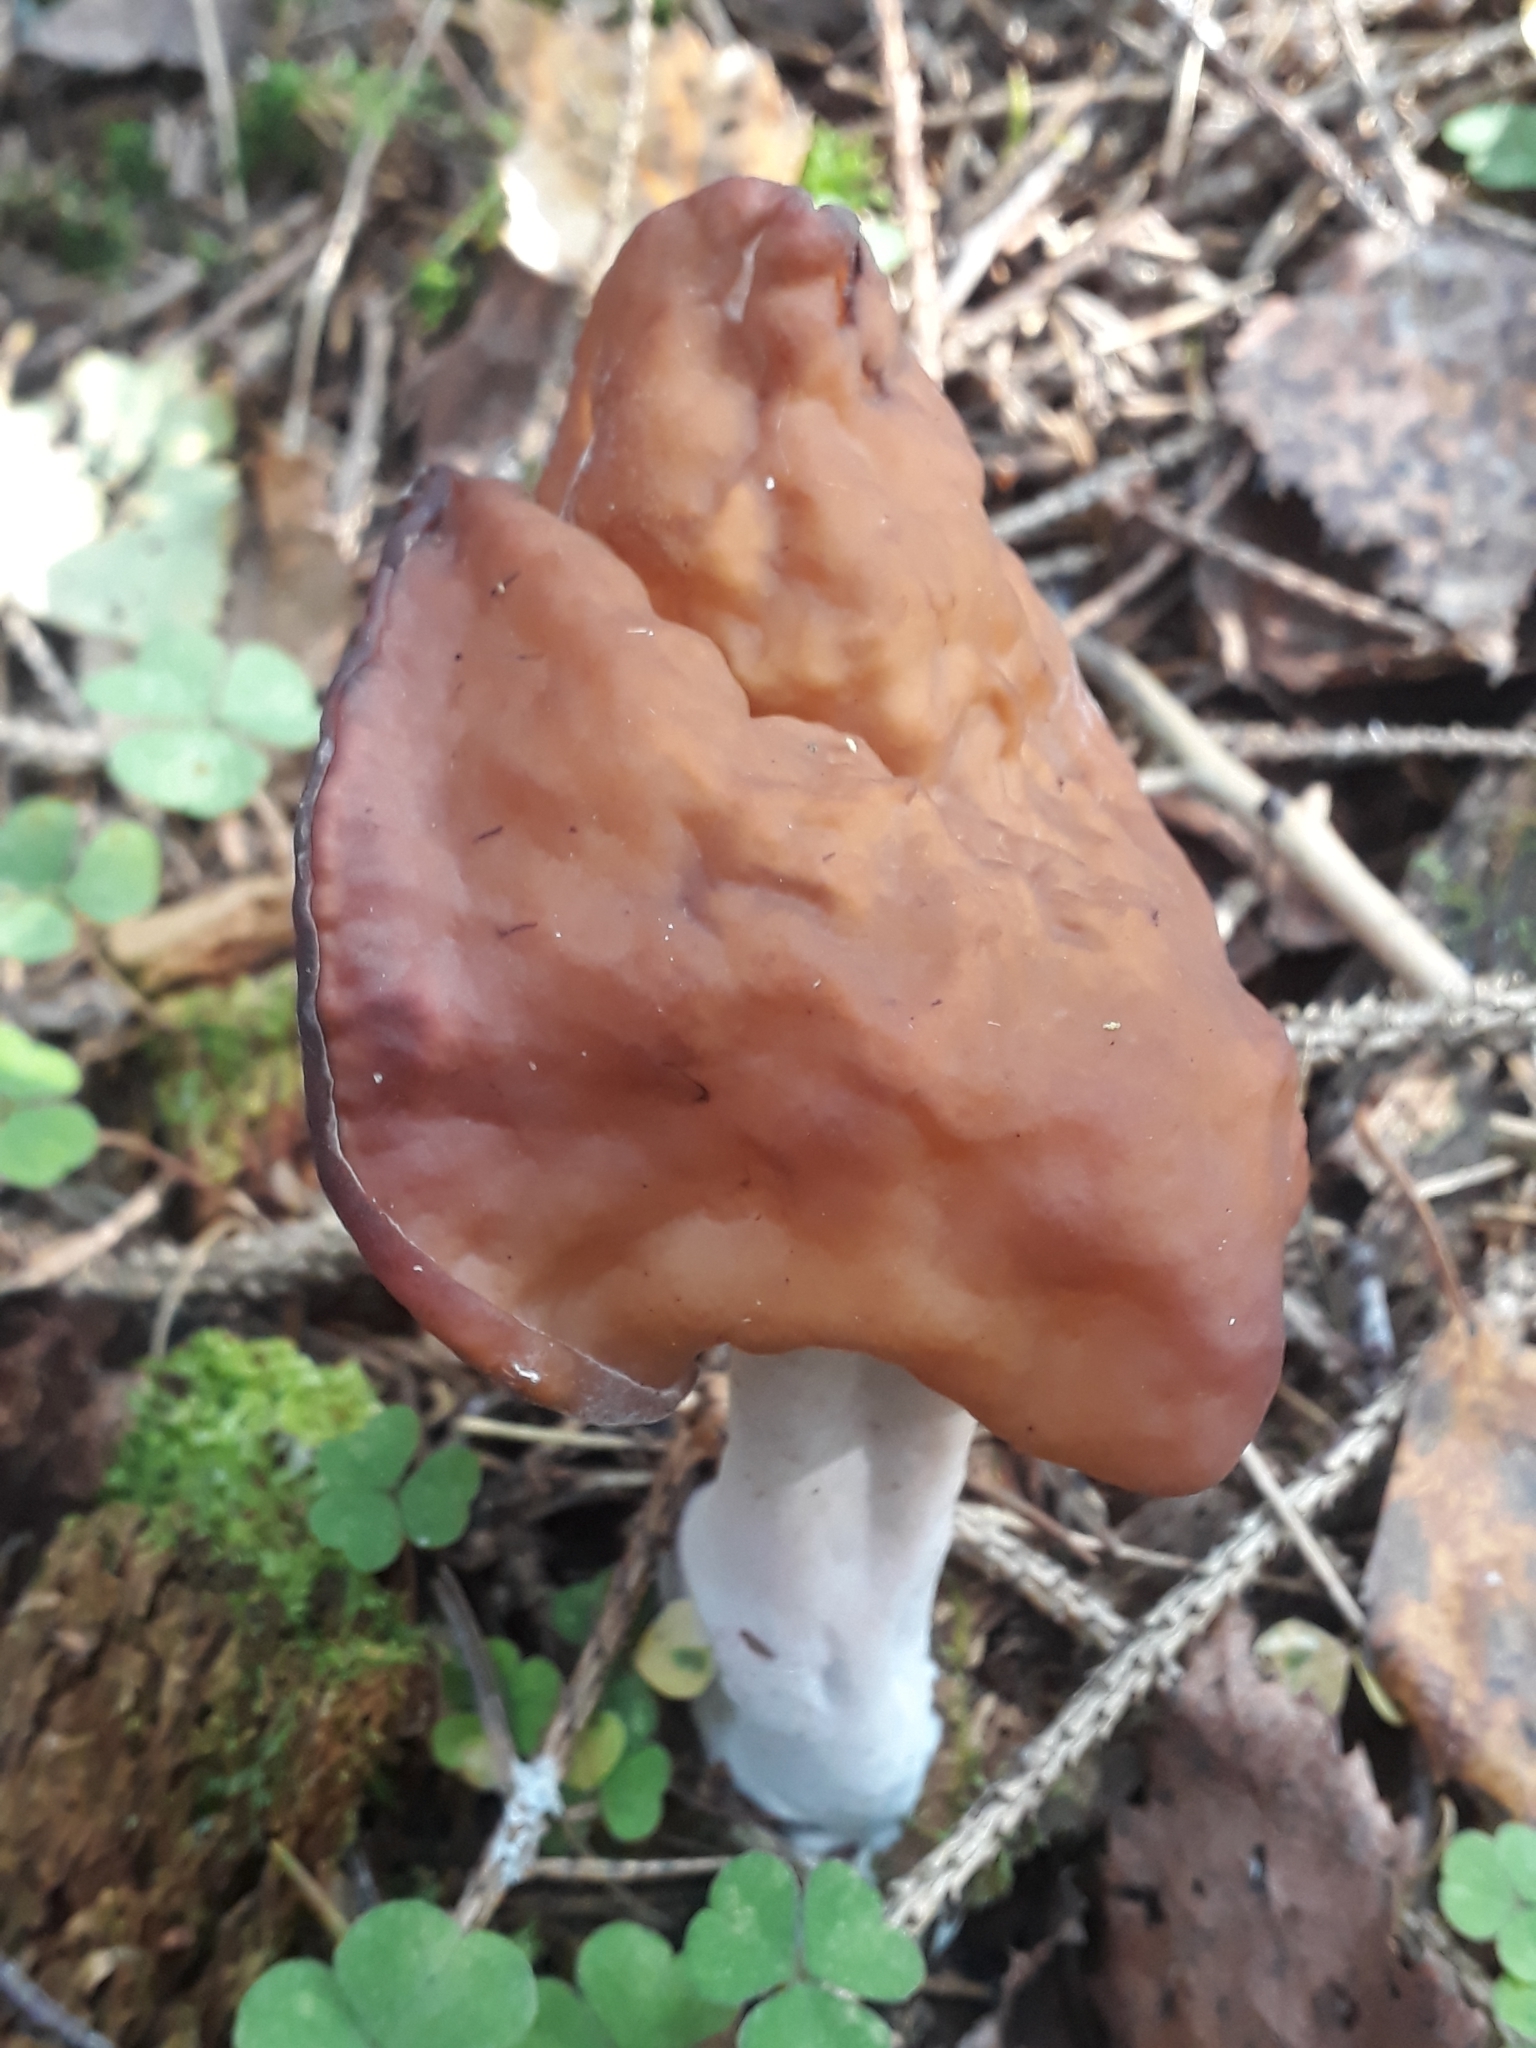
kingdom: Fungi
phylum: Ascomycota
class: Pezizomycetes
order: Pezizales
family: Discinaceae
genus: Gyromitra
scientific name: Gyromitra infula
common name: Pouched false morel
